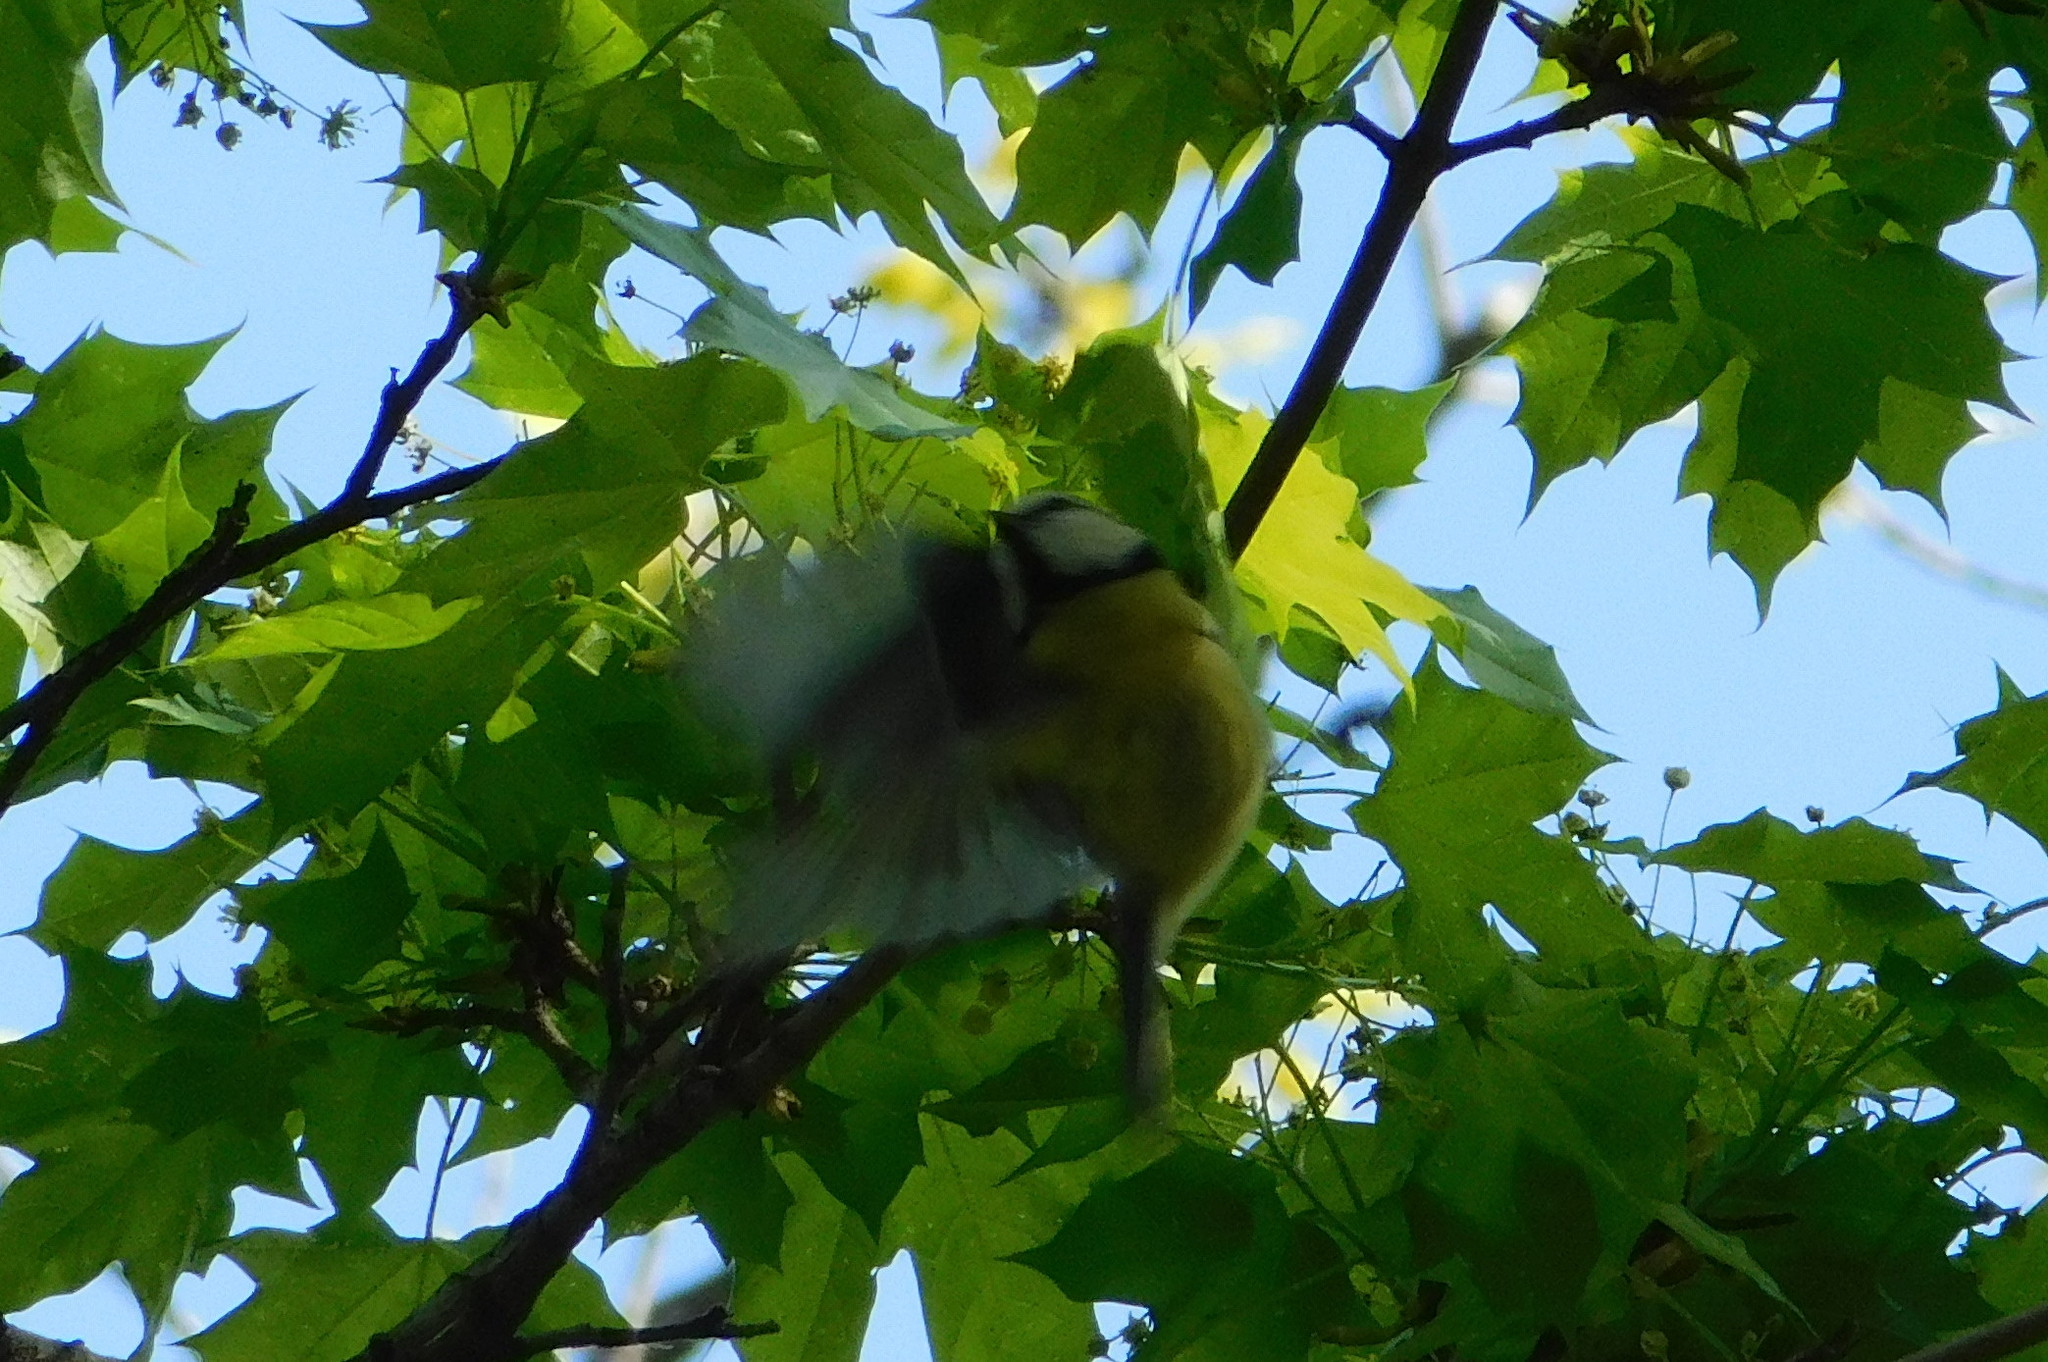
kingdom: Animalia
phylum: Chordata
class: Aves
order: Passeriformes
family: Paridae
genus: Cyanistes
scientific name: Cyanistes caeruleus
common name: Eurasian blue tit
